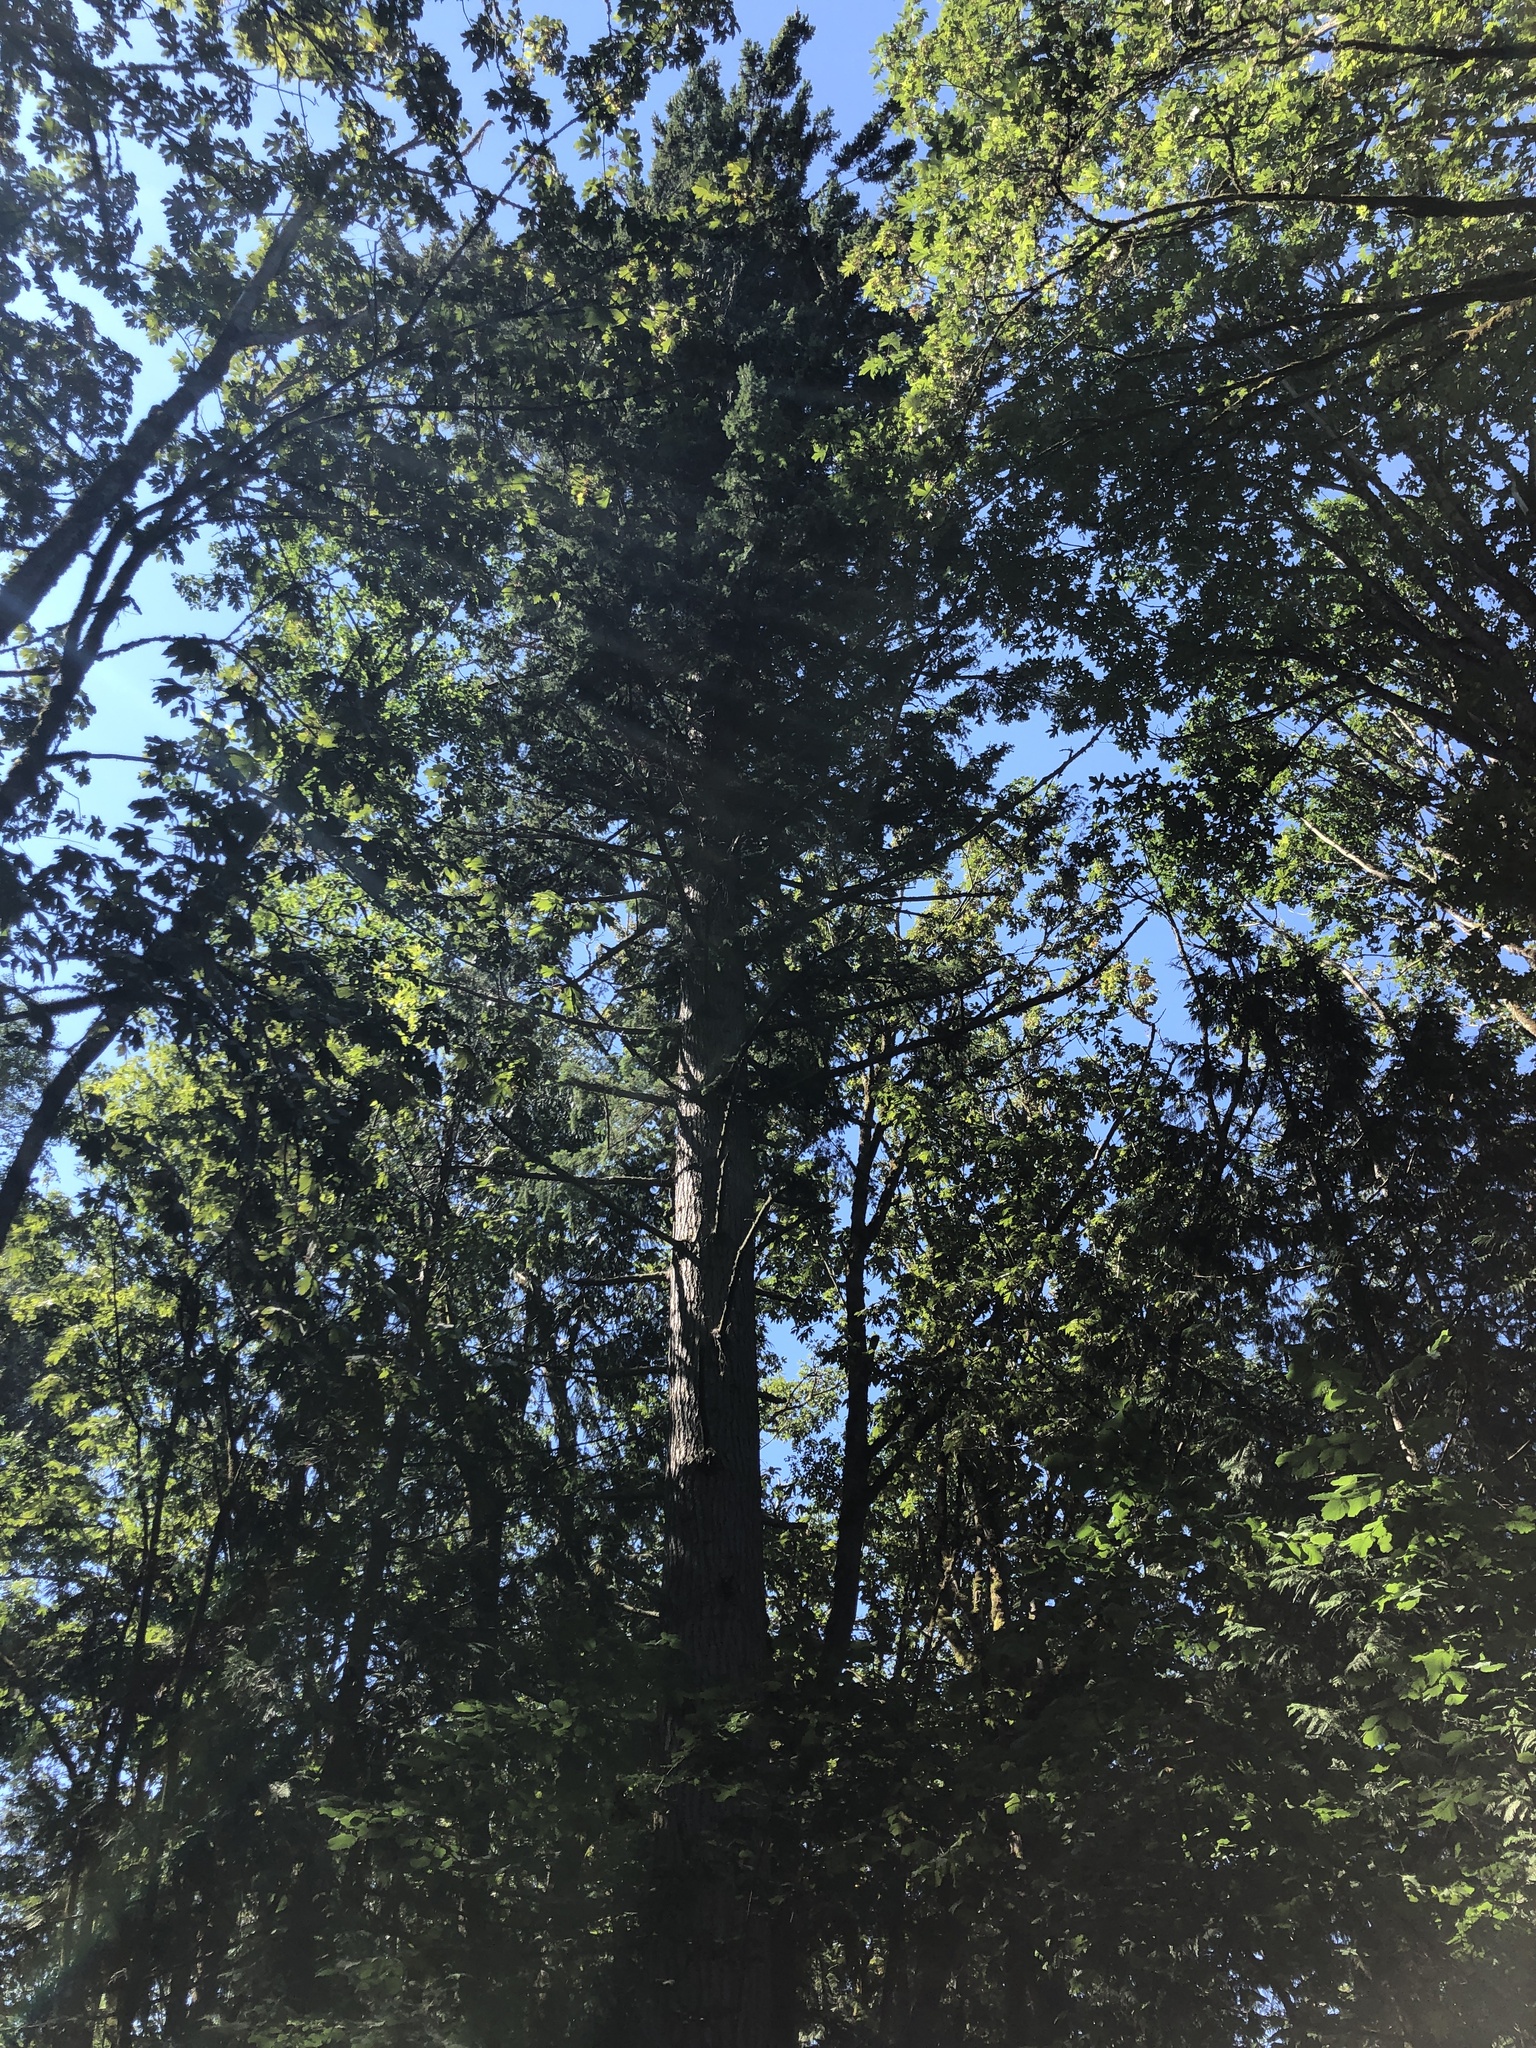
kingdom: Plantae
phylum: Tracheophyta
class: Pinopsida
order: Pinales
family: Pinaceae
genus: Pseudotsuga
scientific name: Pseudotsuga menziesii
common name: Douglas fir
